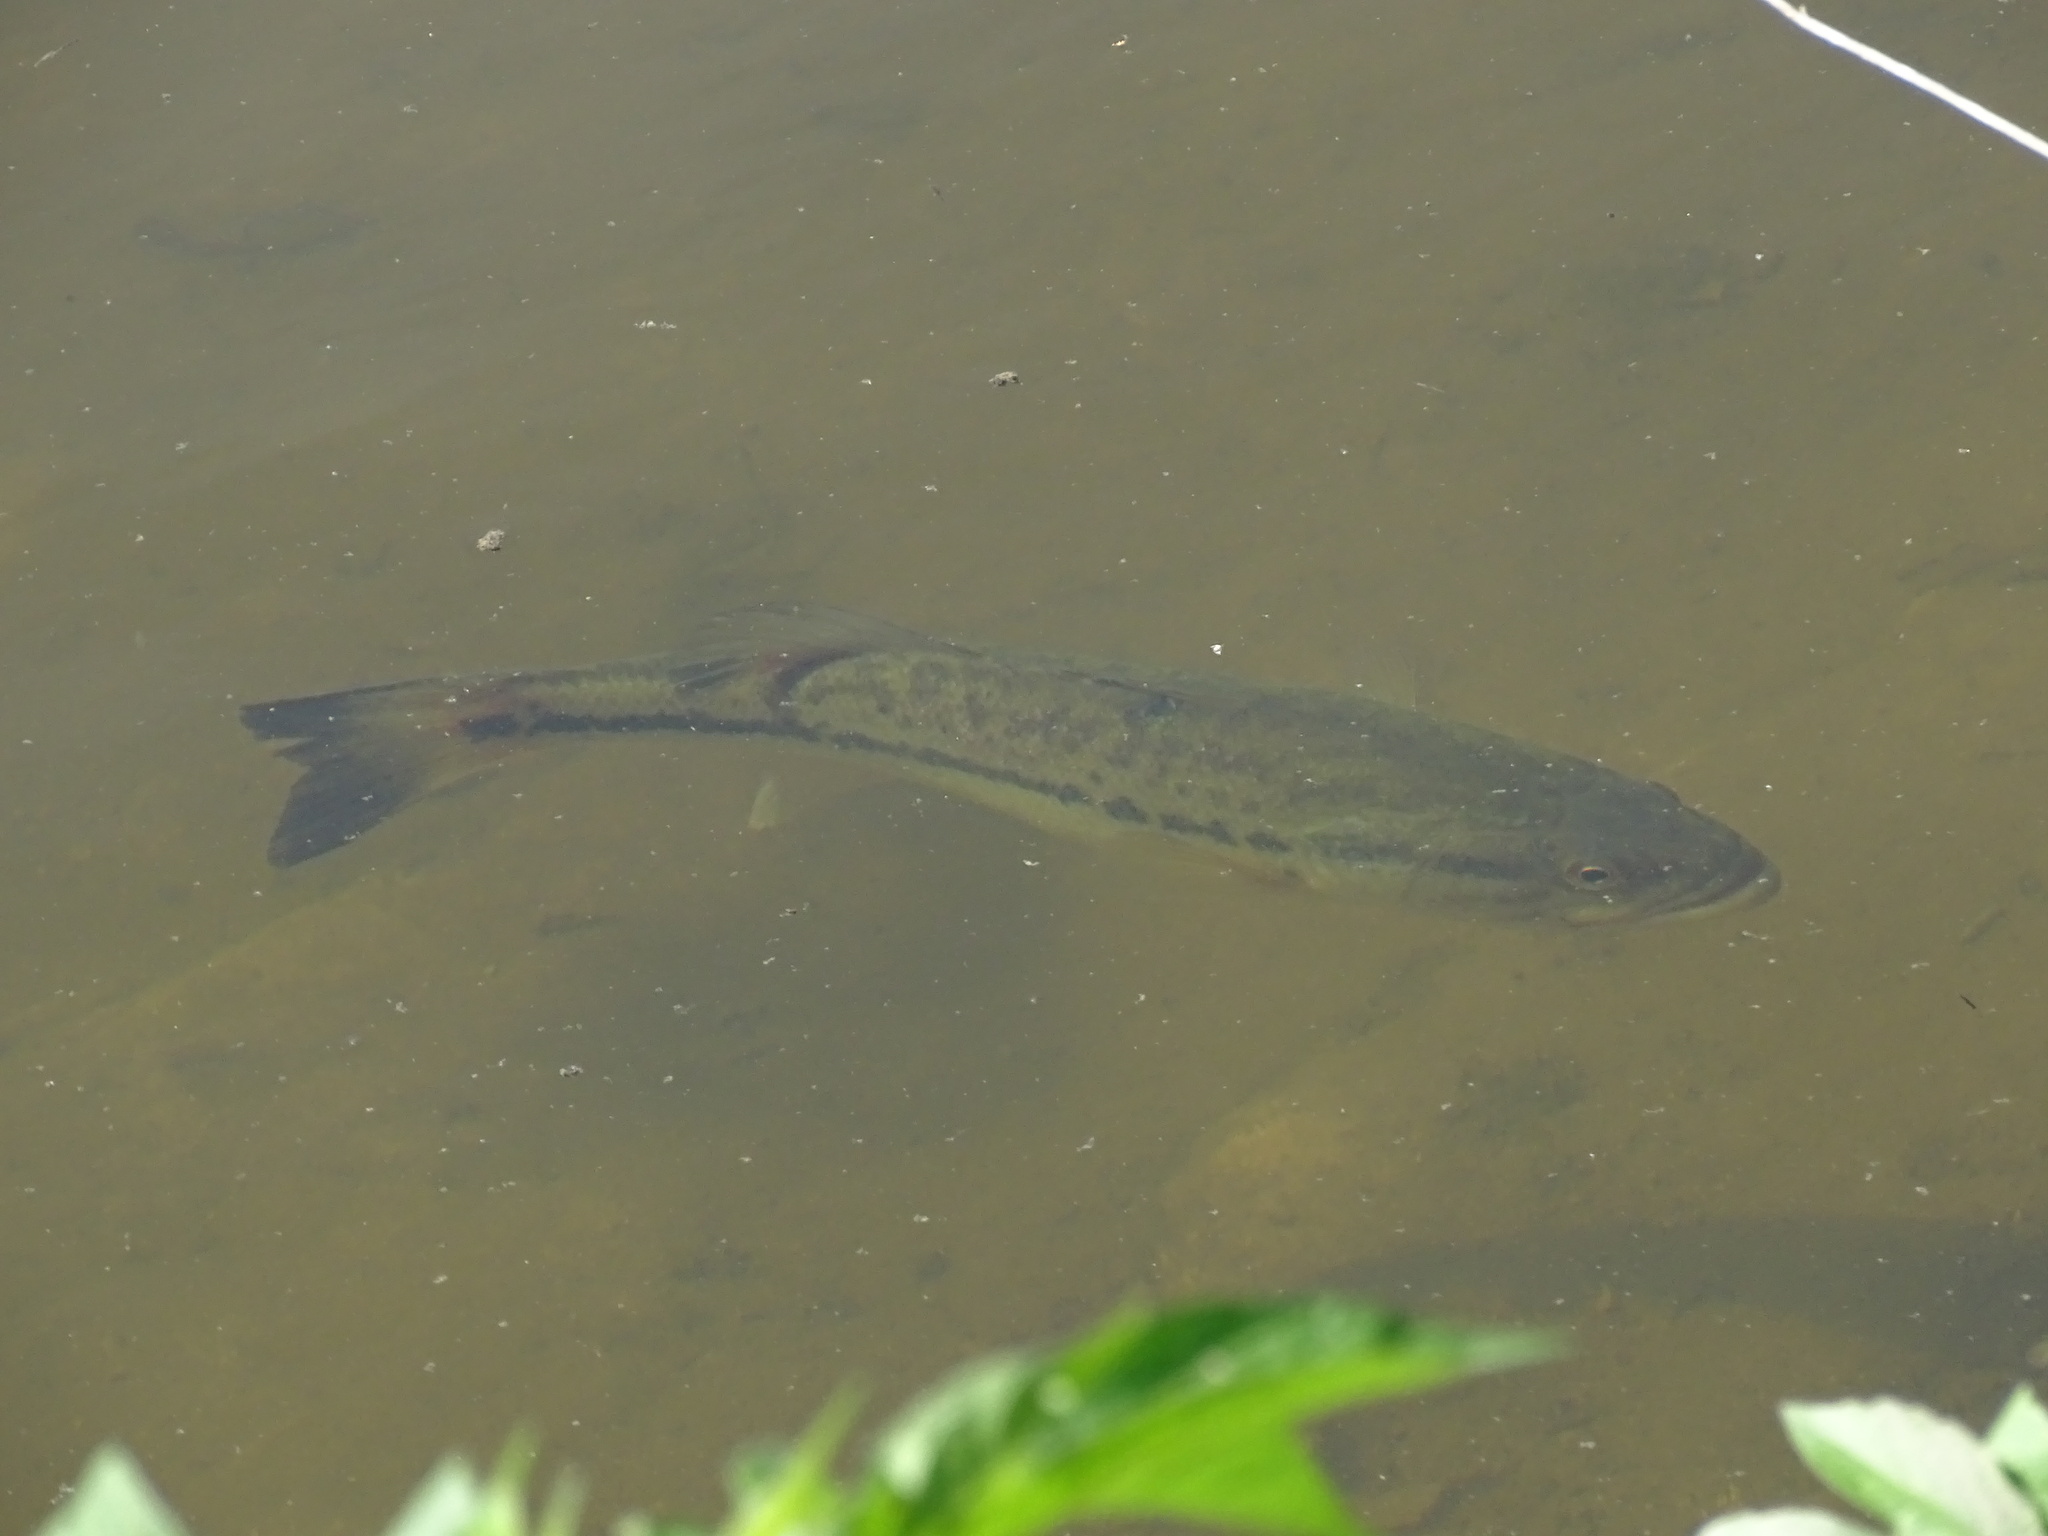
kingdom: Animalia
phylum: Chordata
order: Perciformes
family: Centrarchidae
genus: Micropterus
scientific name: Micropterus
